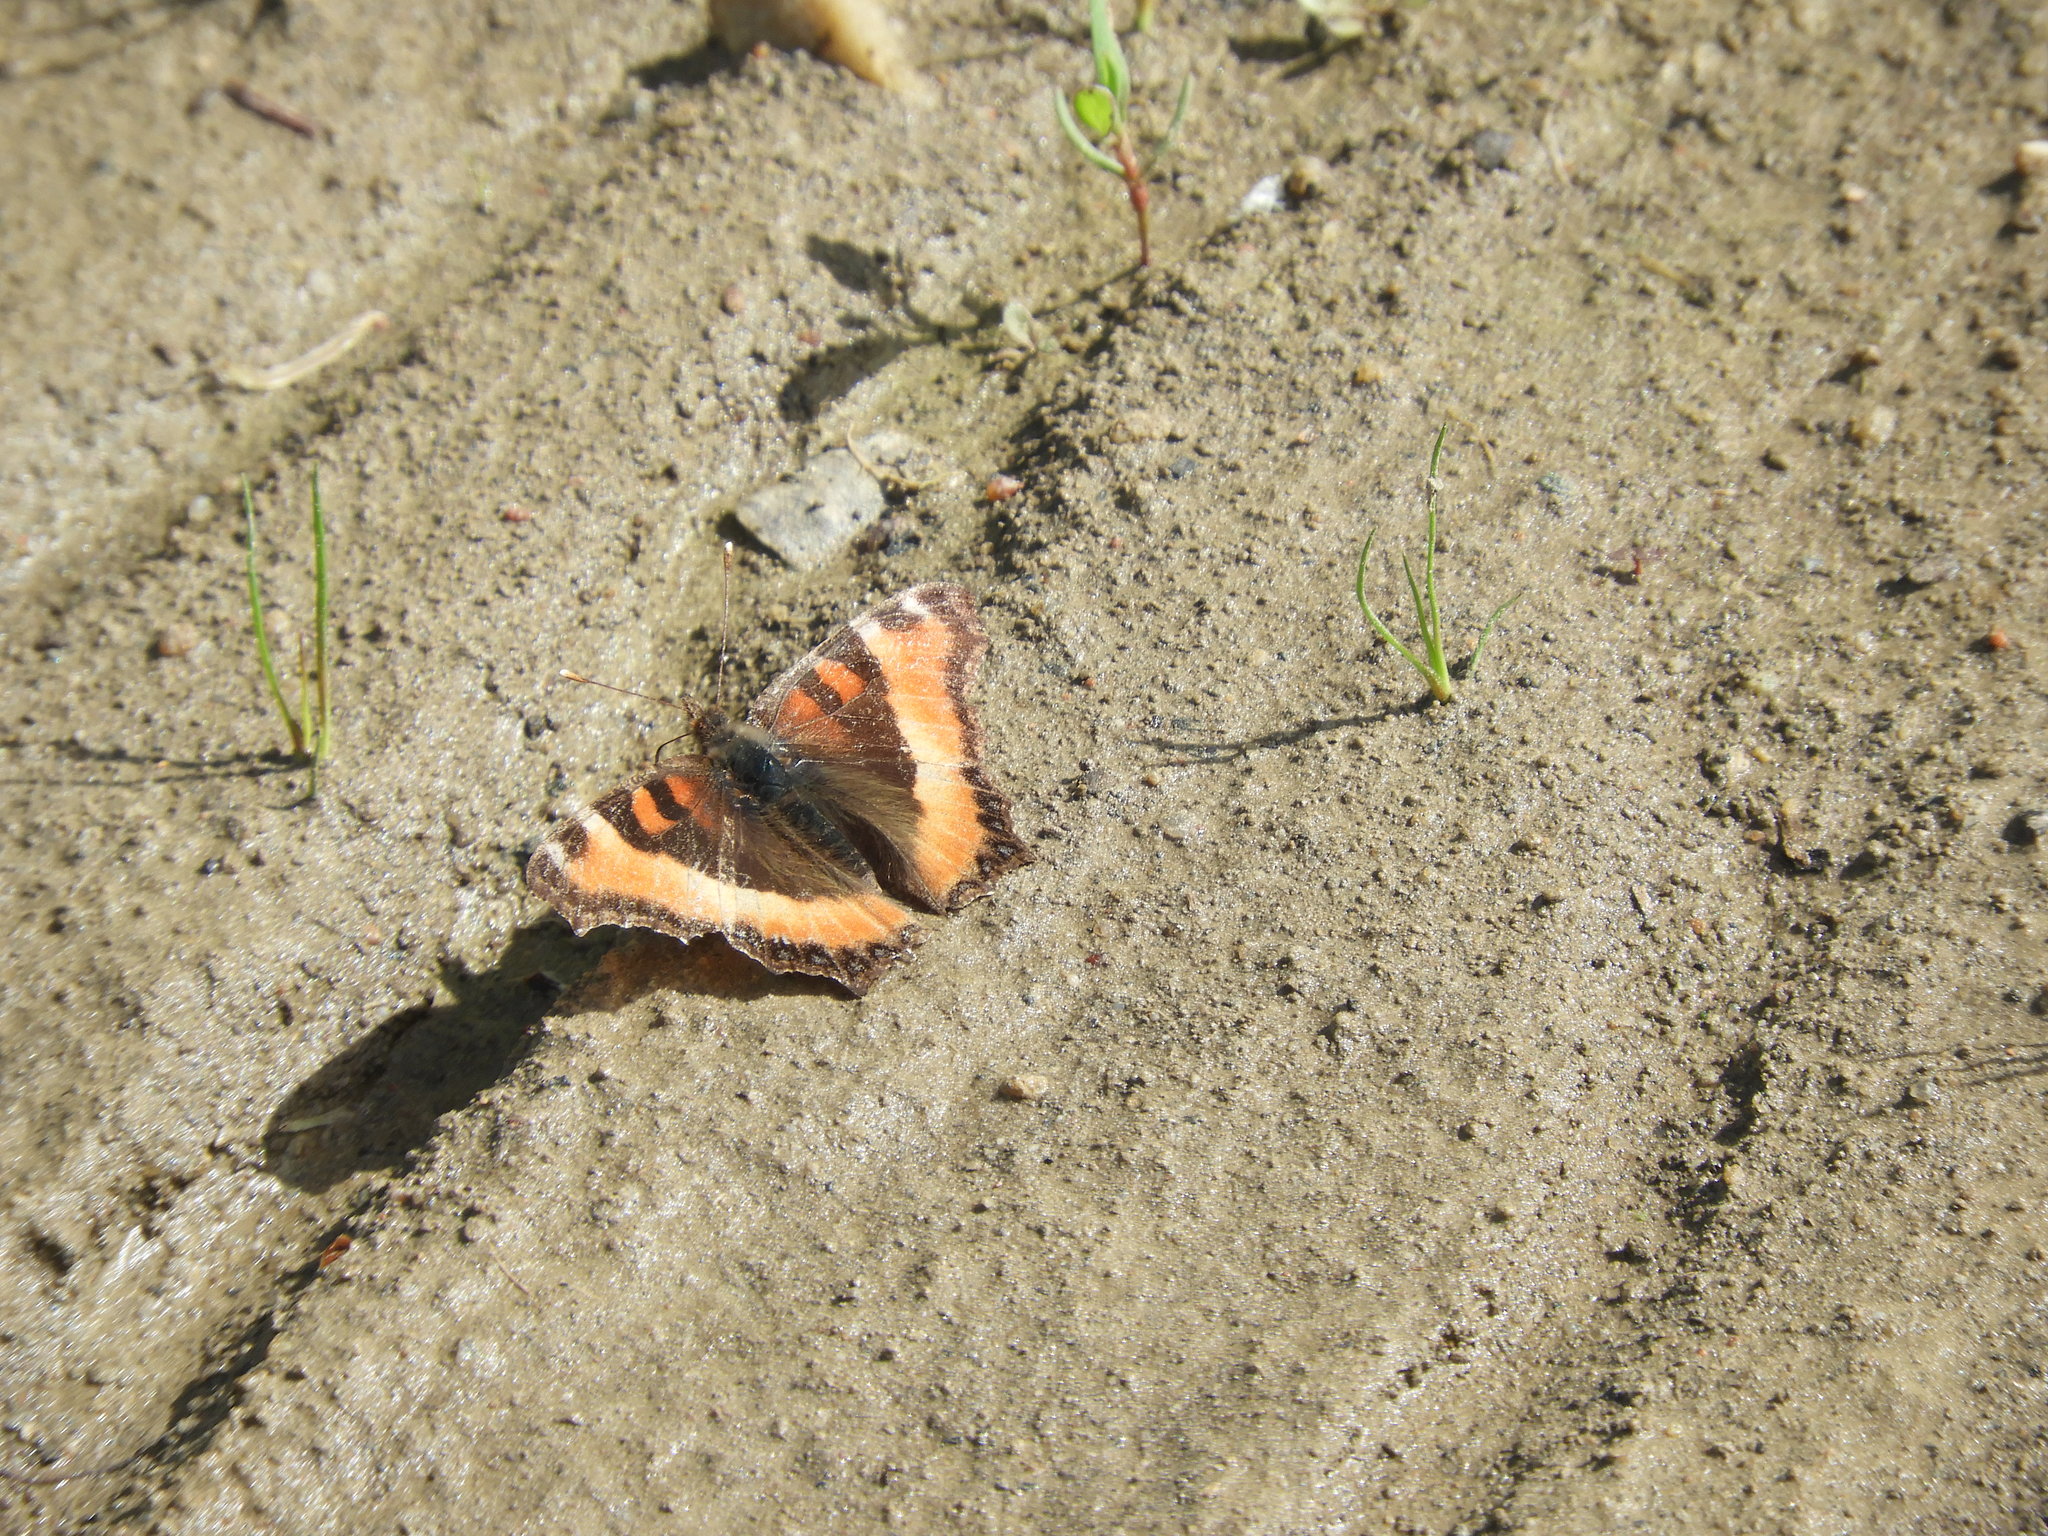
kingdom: Animalia
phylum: Arthropoda
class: Insecta
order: Lepidoptera
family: Nymphalidae
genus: Aglais
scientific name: Aglais milberti
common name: Milbert's tortoiseshell
